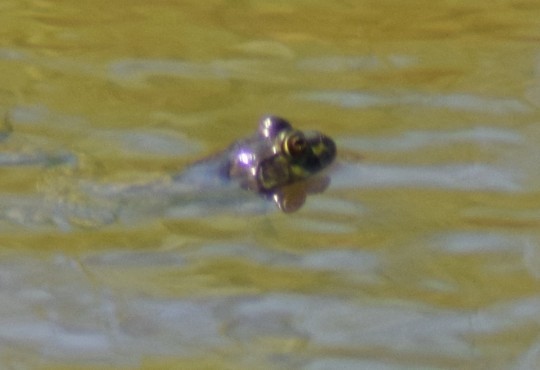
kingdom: Animalia
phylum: Chordata
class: Amphibia
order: Anura
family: Ranidae
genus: Lithobates
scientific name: Lithobates catesbeianus
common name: American bullfrog
